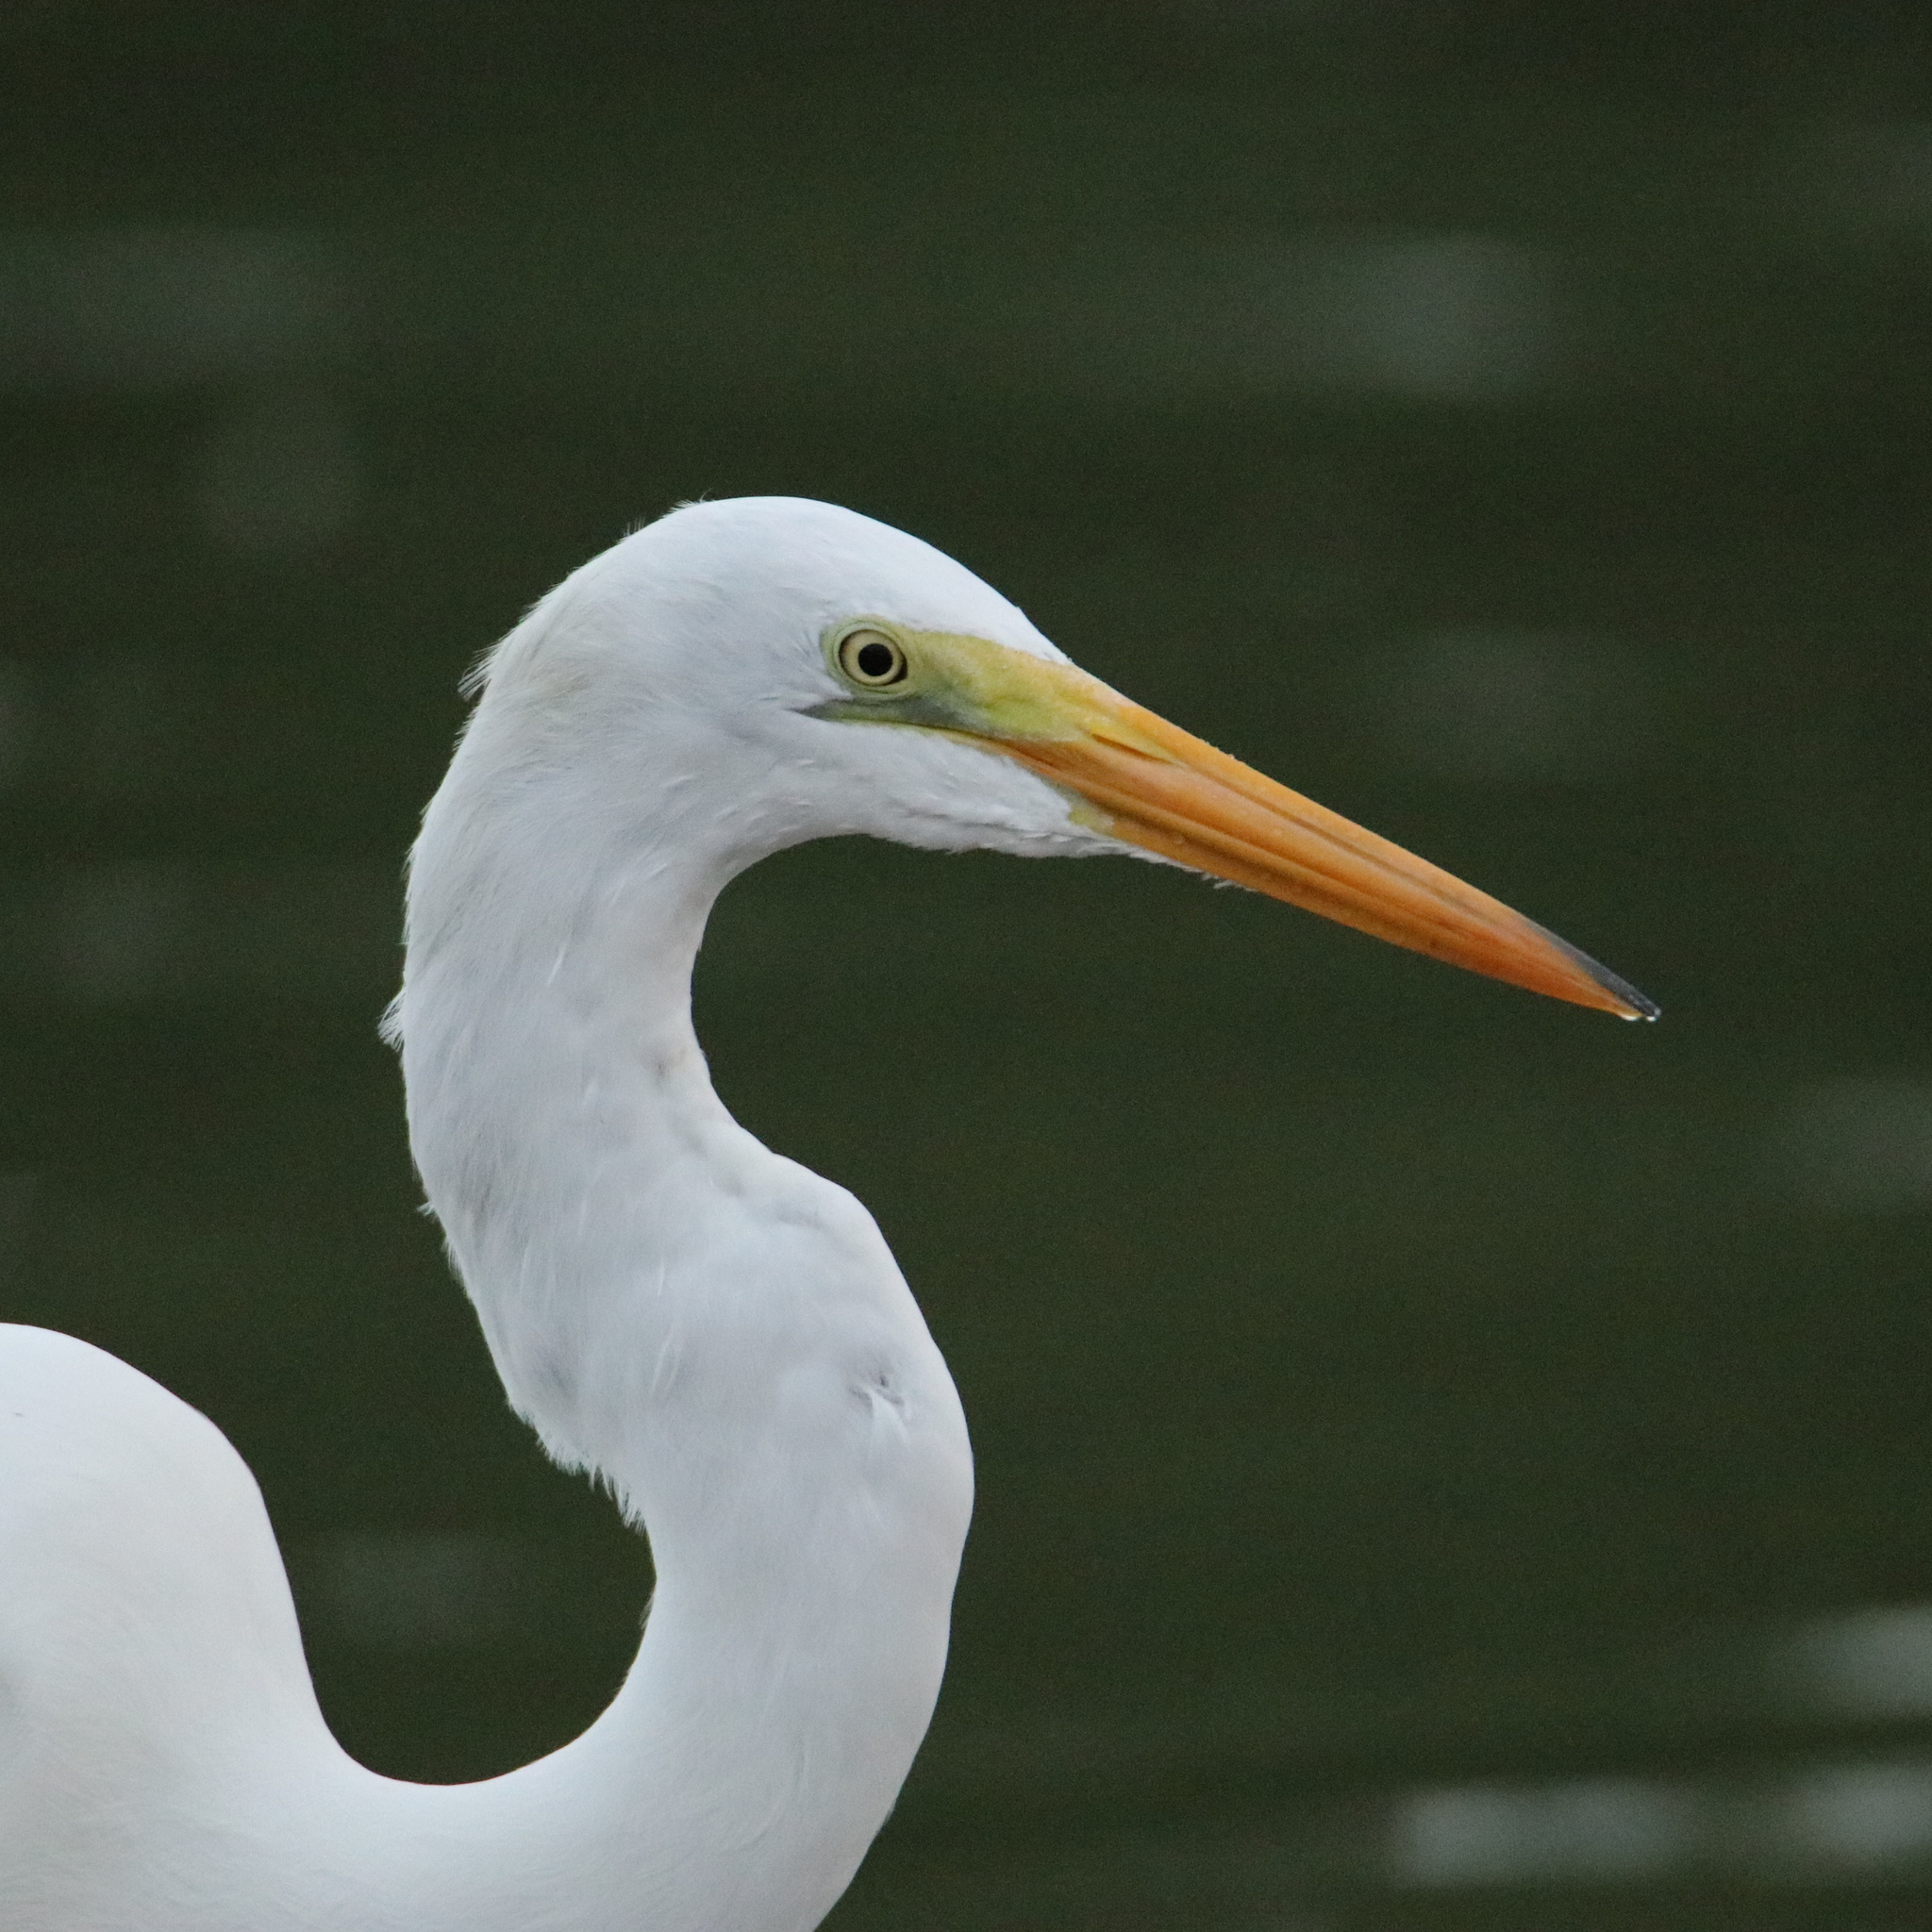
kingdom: Animalia
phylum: Chordata
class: Aves
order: Pelecaniformes
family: Ardeidae
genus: Ardea
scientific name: Ardea alba
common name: Great egret
